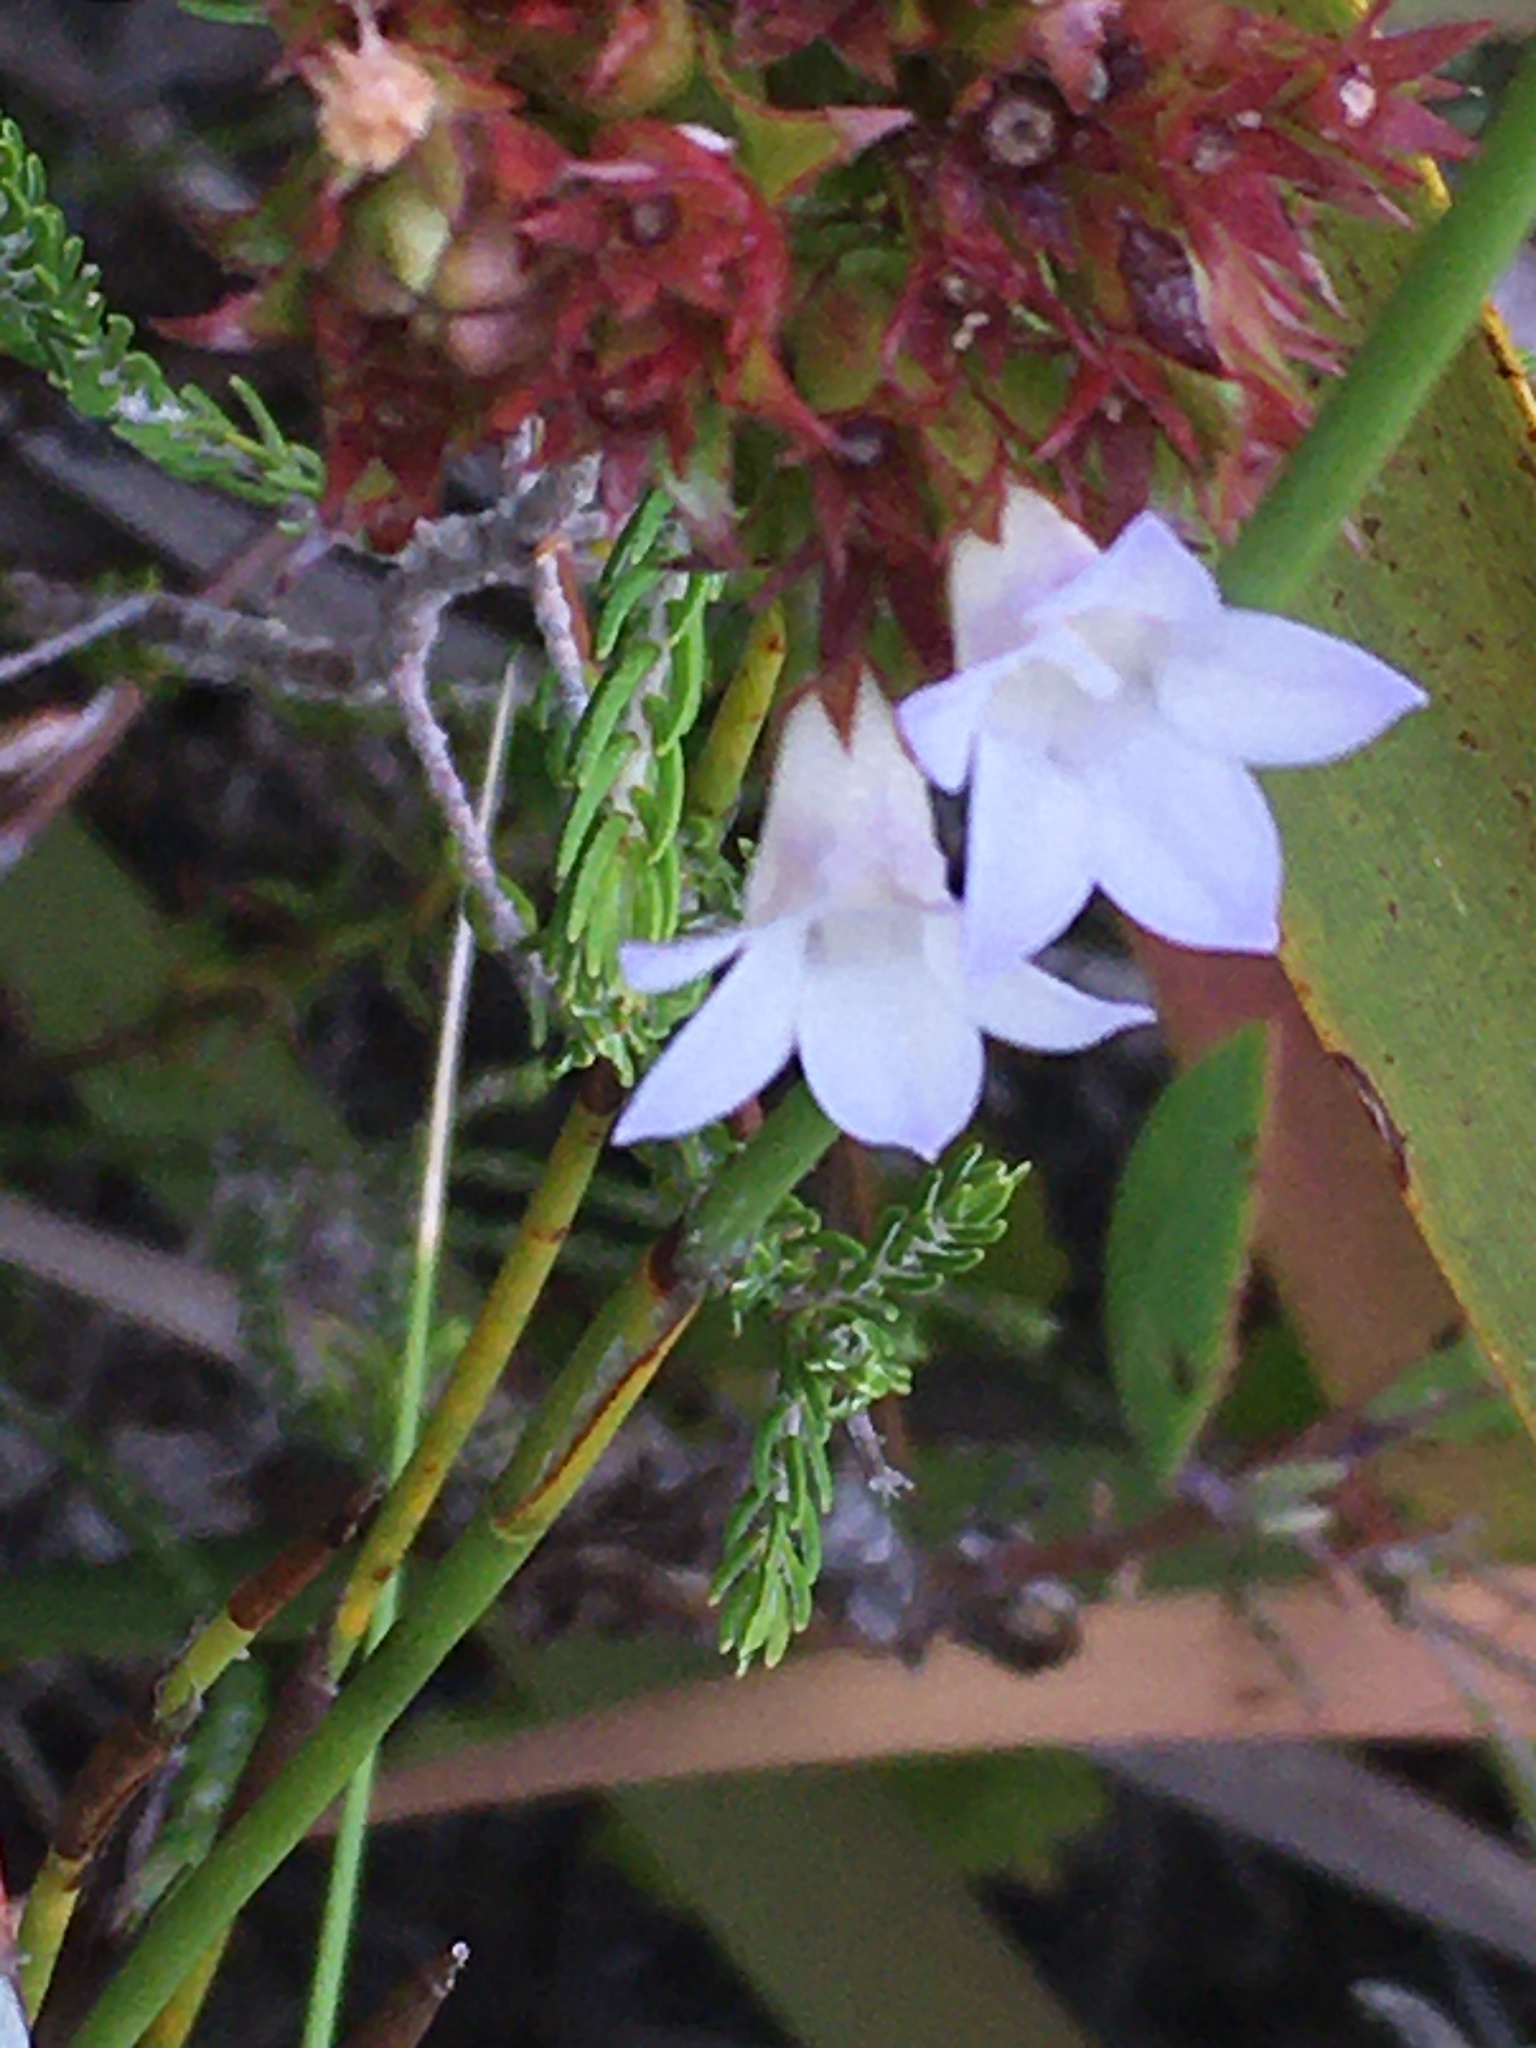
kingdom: Plantae
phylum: Tracheophyta
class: Magnoliopsida
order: Asterales
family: Campanulaceae
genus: Roella
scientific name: Roella amplexicaulis
